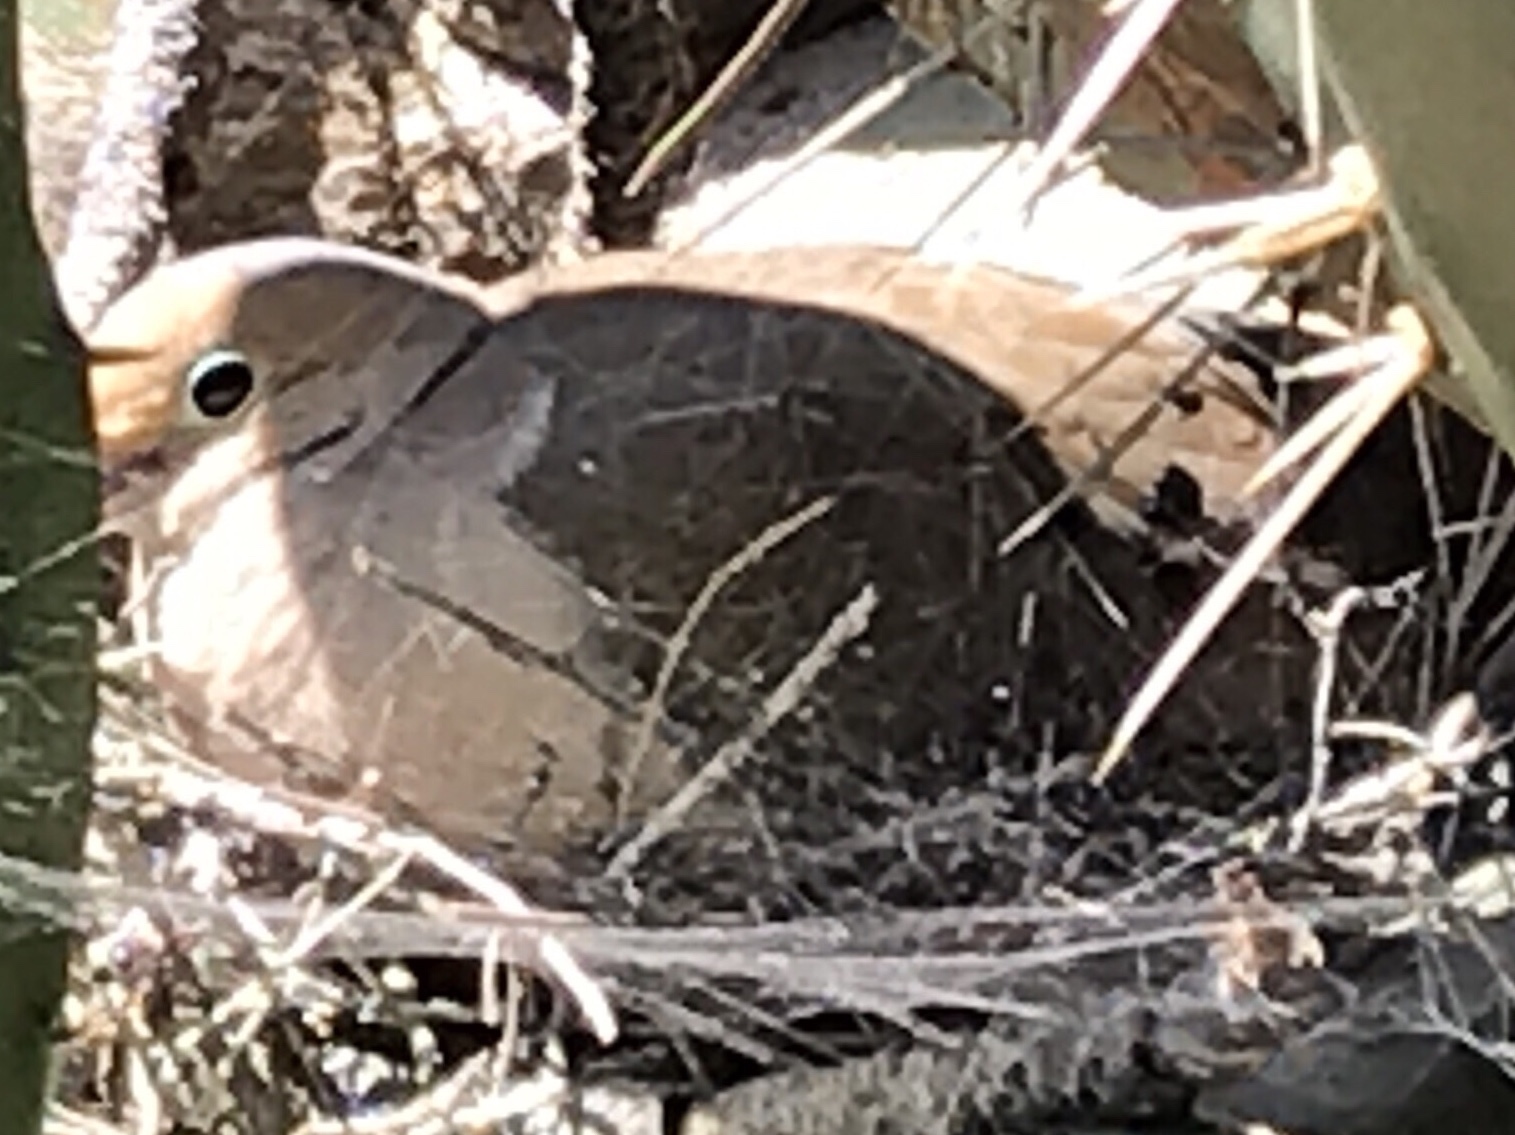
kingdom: Animalia
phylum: Chordata
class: Aves
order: Columbiformes
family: Columbidae
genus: Zenaida
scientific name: Zenaida macroura
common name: Mourning dove
